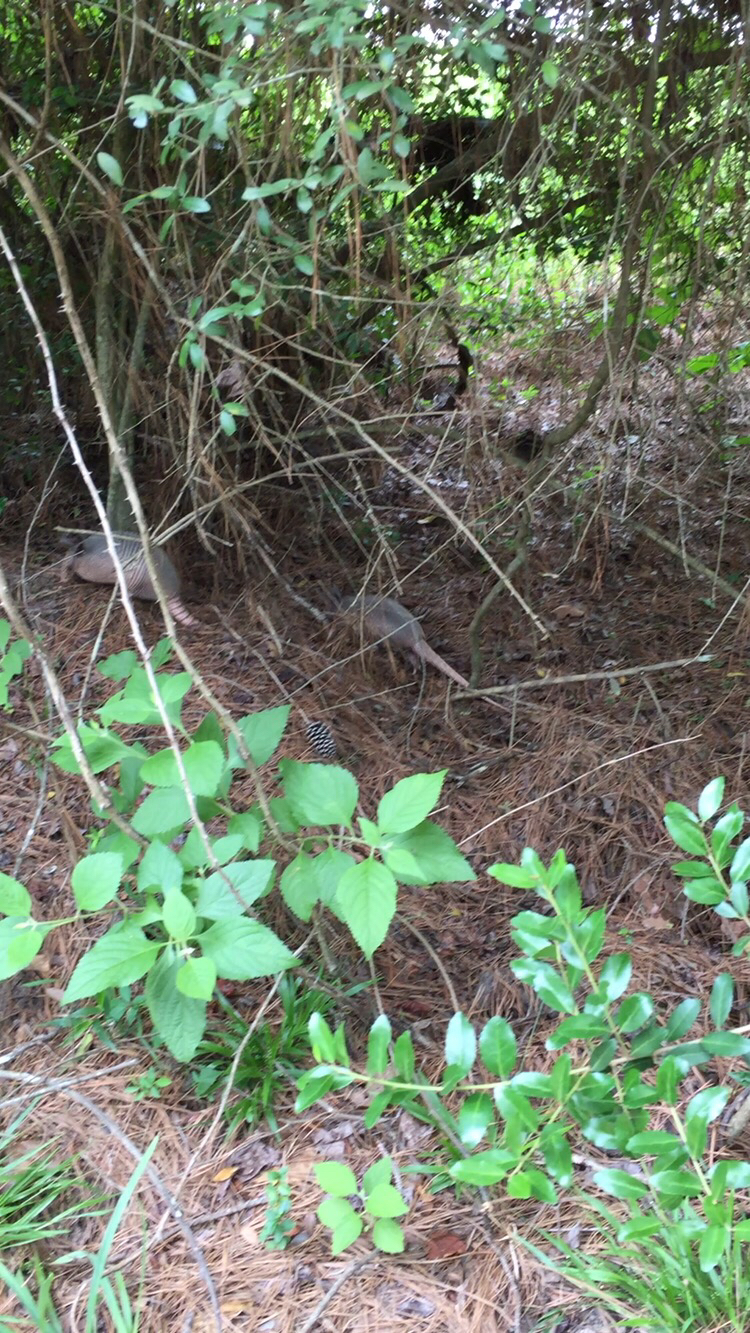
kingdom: Animalia
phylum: Chordata
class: Mammalia
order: Cingulata
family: Dasypodidae
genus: Dasypus
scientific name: Dasypus novemcinctus
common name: Nine-banded armadillo
